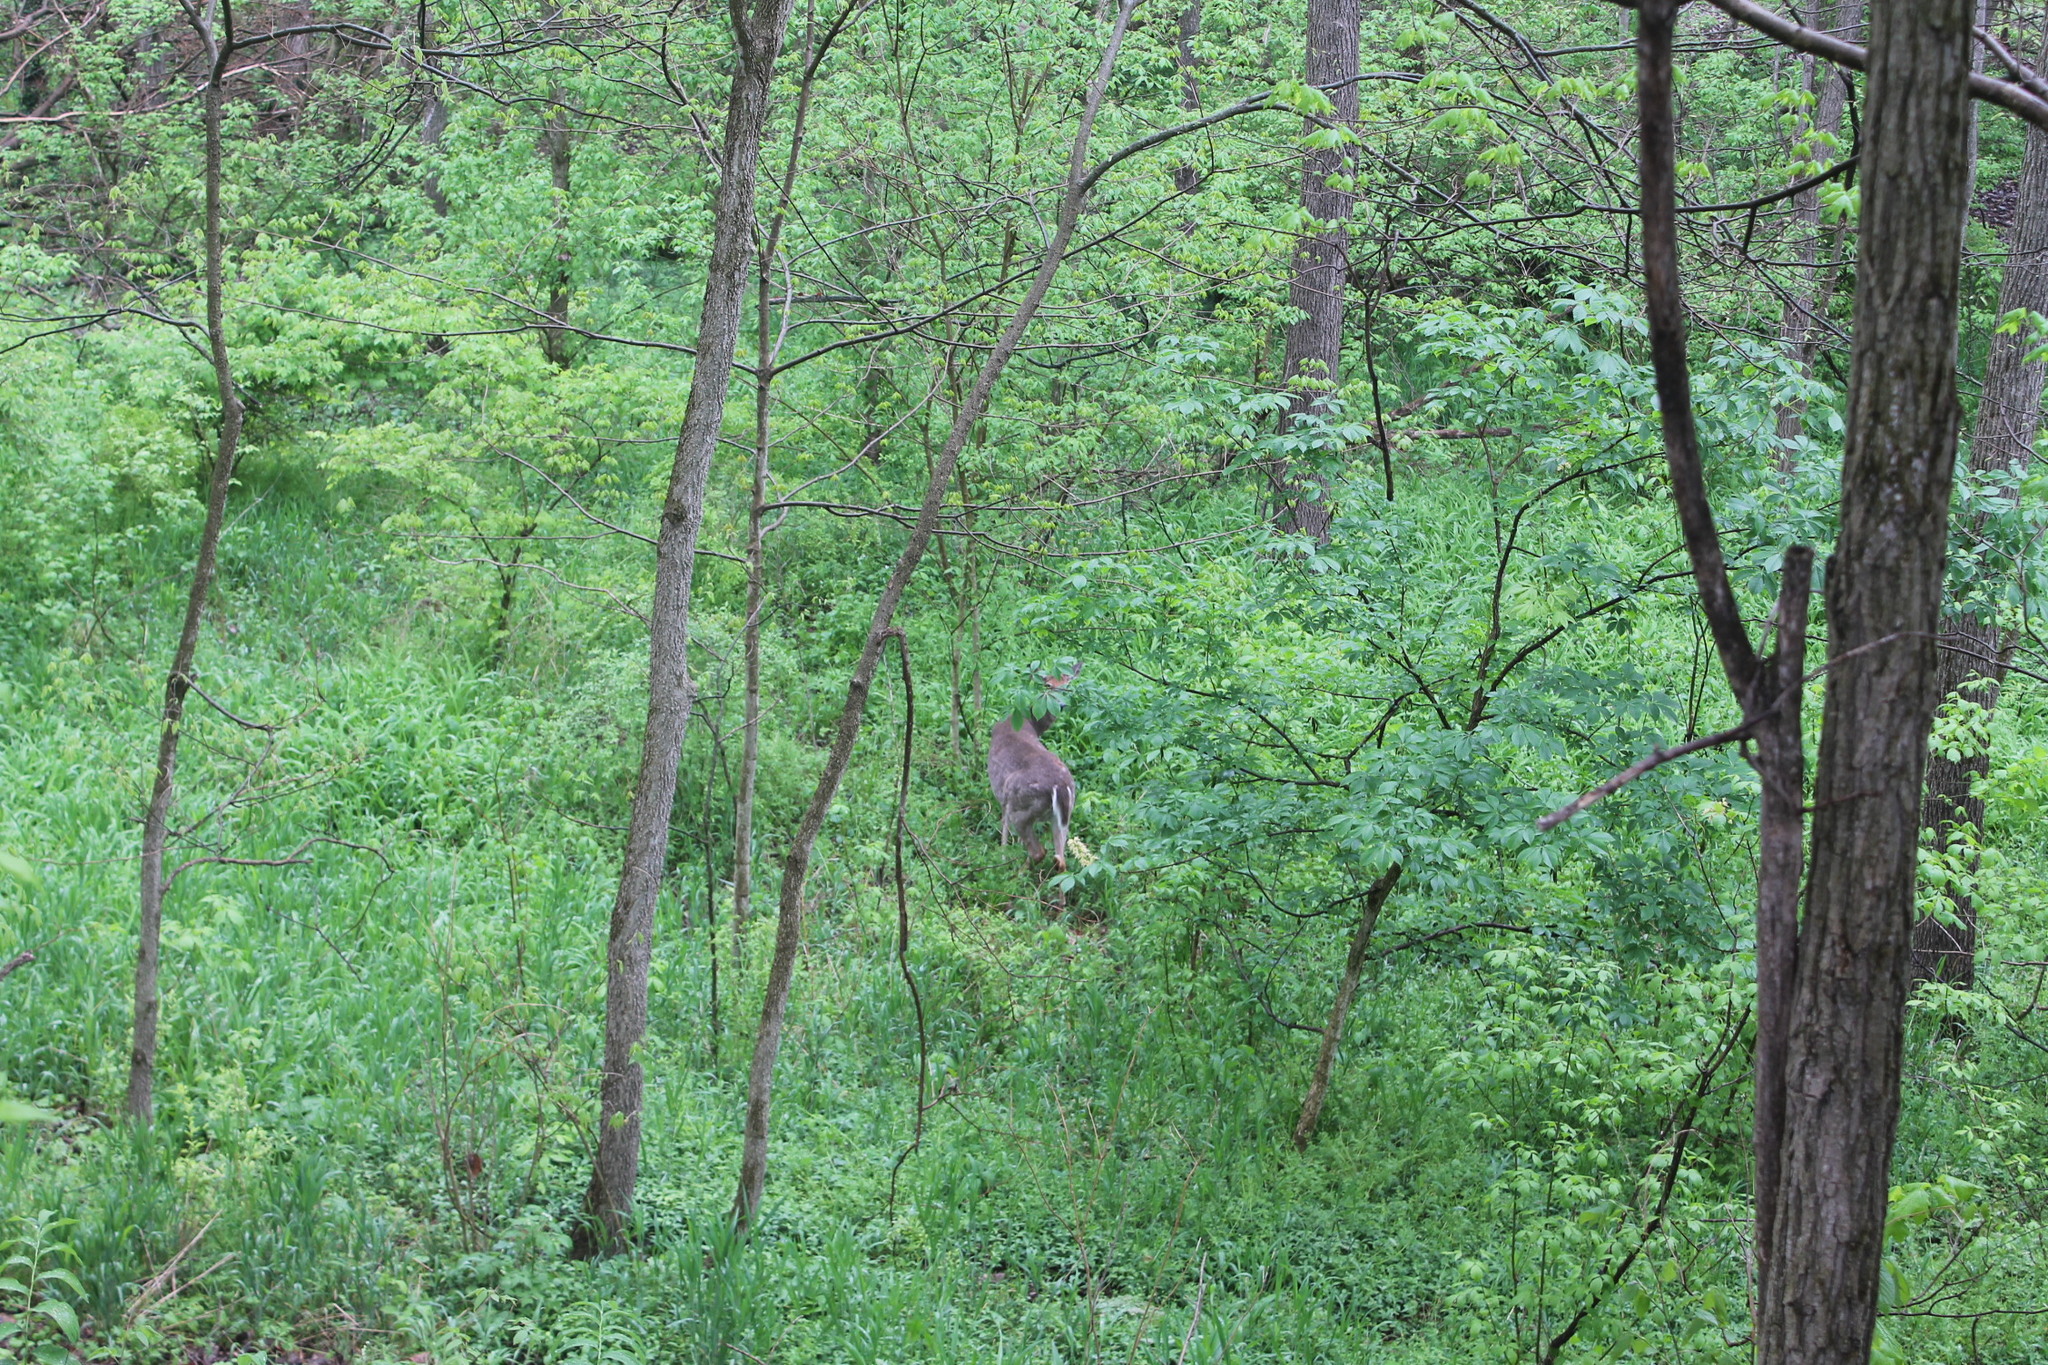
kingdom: Animalia
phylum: Chordata
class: Mammalia
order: Artiodactyla
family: Cervidae
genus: Odocoileus
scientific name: Odocoileus virginianus
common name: White-tailed deer
